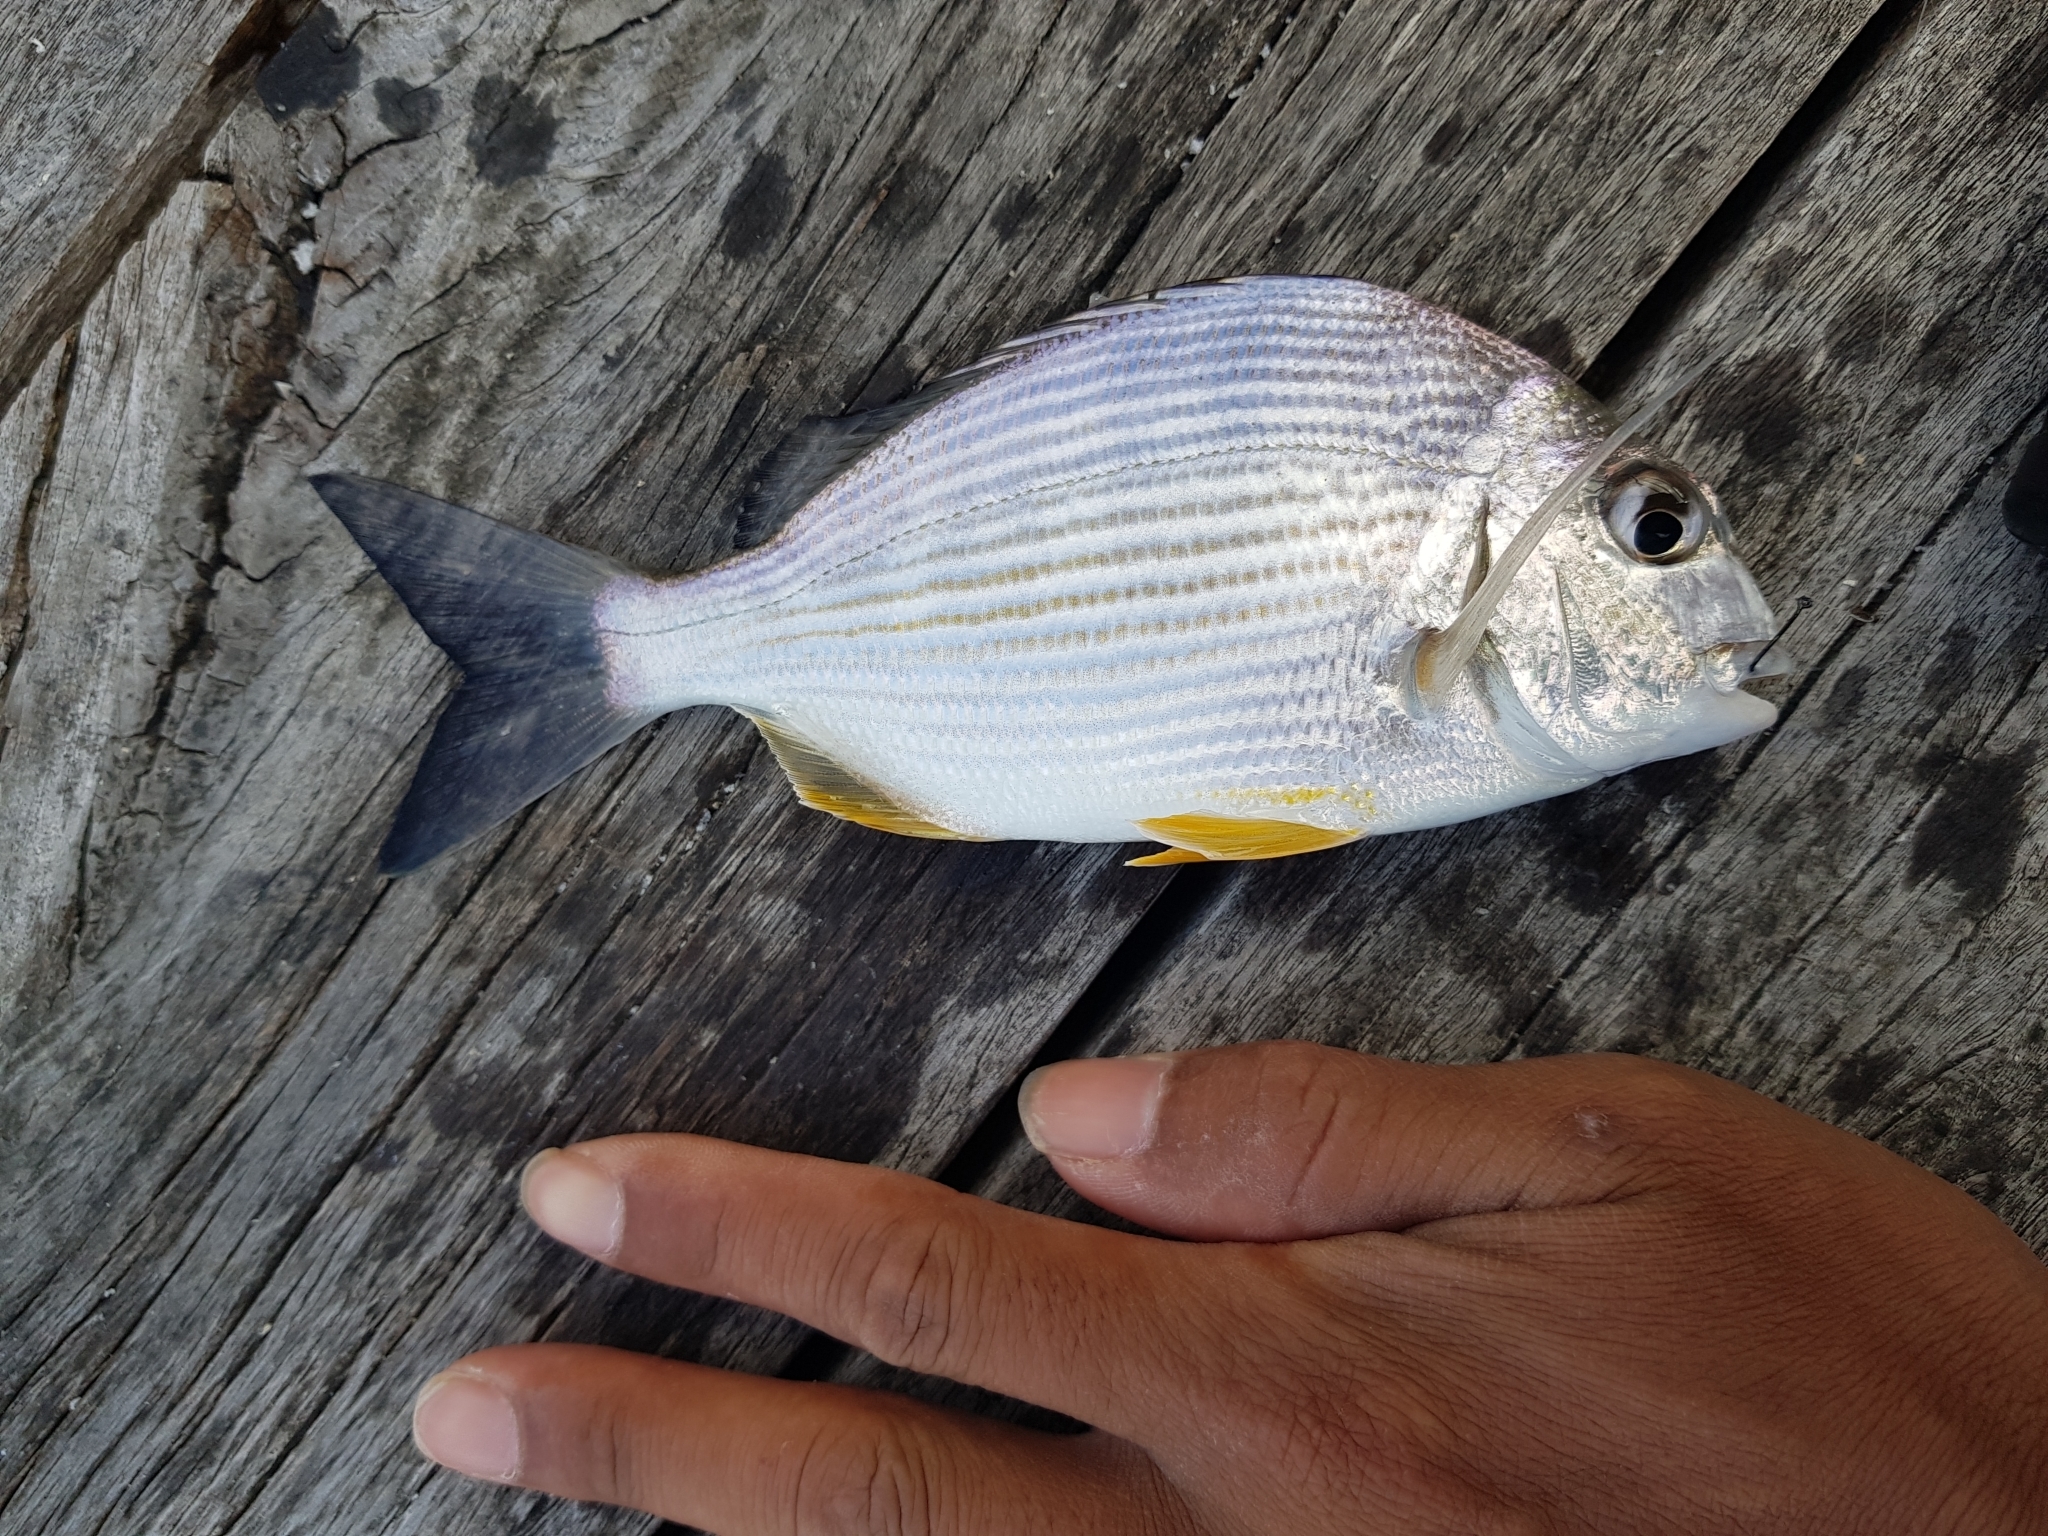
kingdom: Animalia
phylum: Chordata
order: Perciformes
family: Sparidae
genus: Rhabdosargus
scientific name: Rhabdosargus sarba
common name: Goldlined seabream
